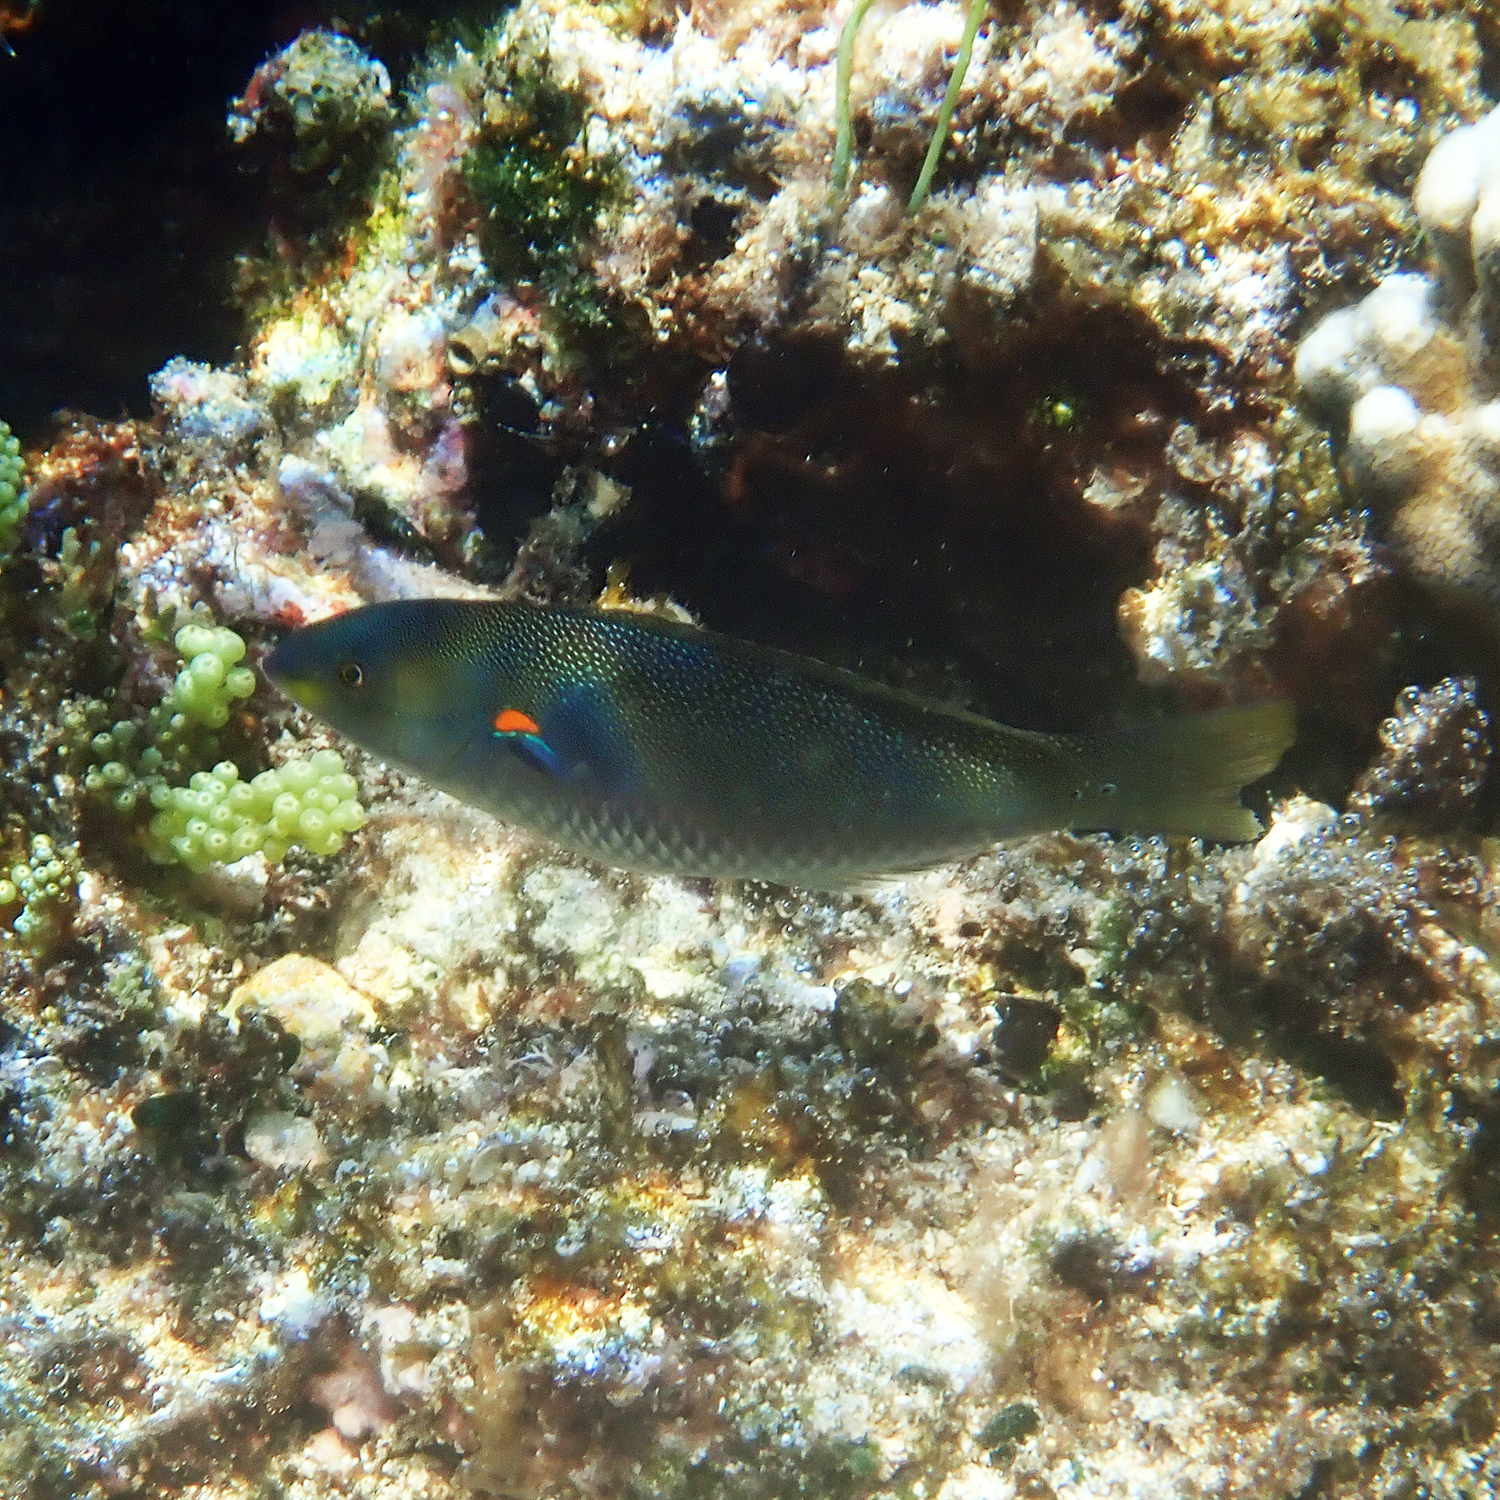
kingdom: Animalia
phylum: Chordata
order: Perciformes
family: Labridae
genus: Stethojulis
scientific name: Stethojulis bandanensis
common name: Red shoulder wrasse
